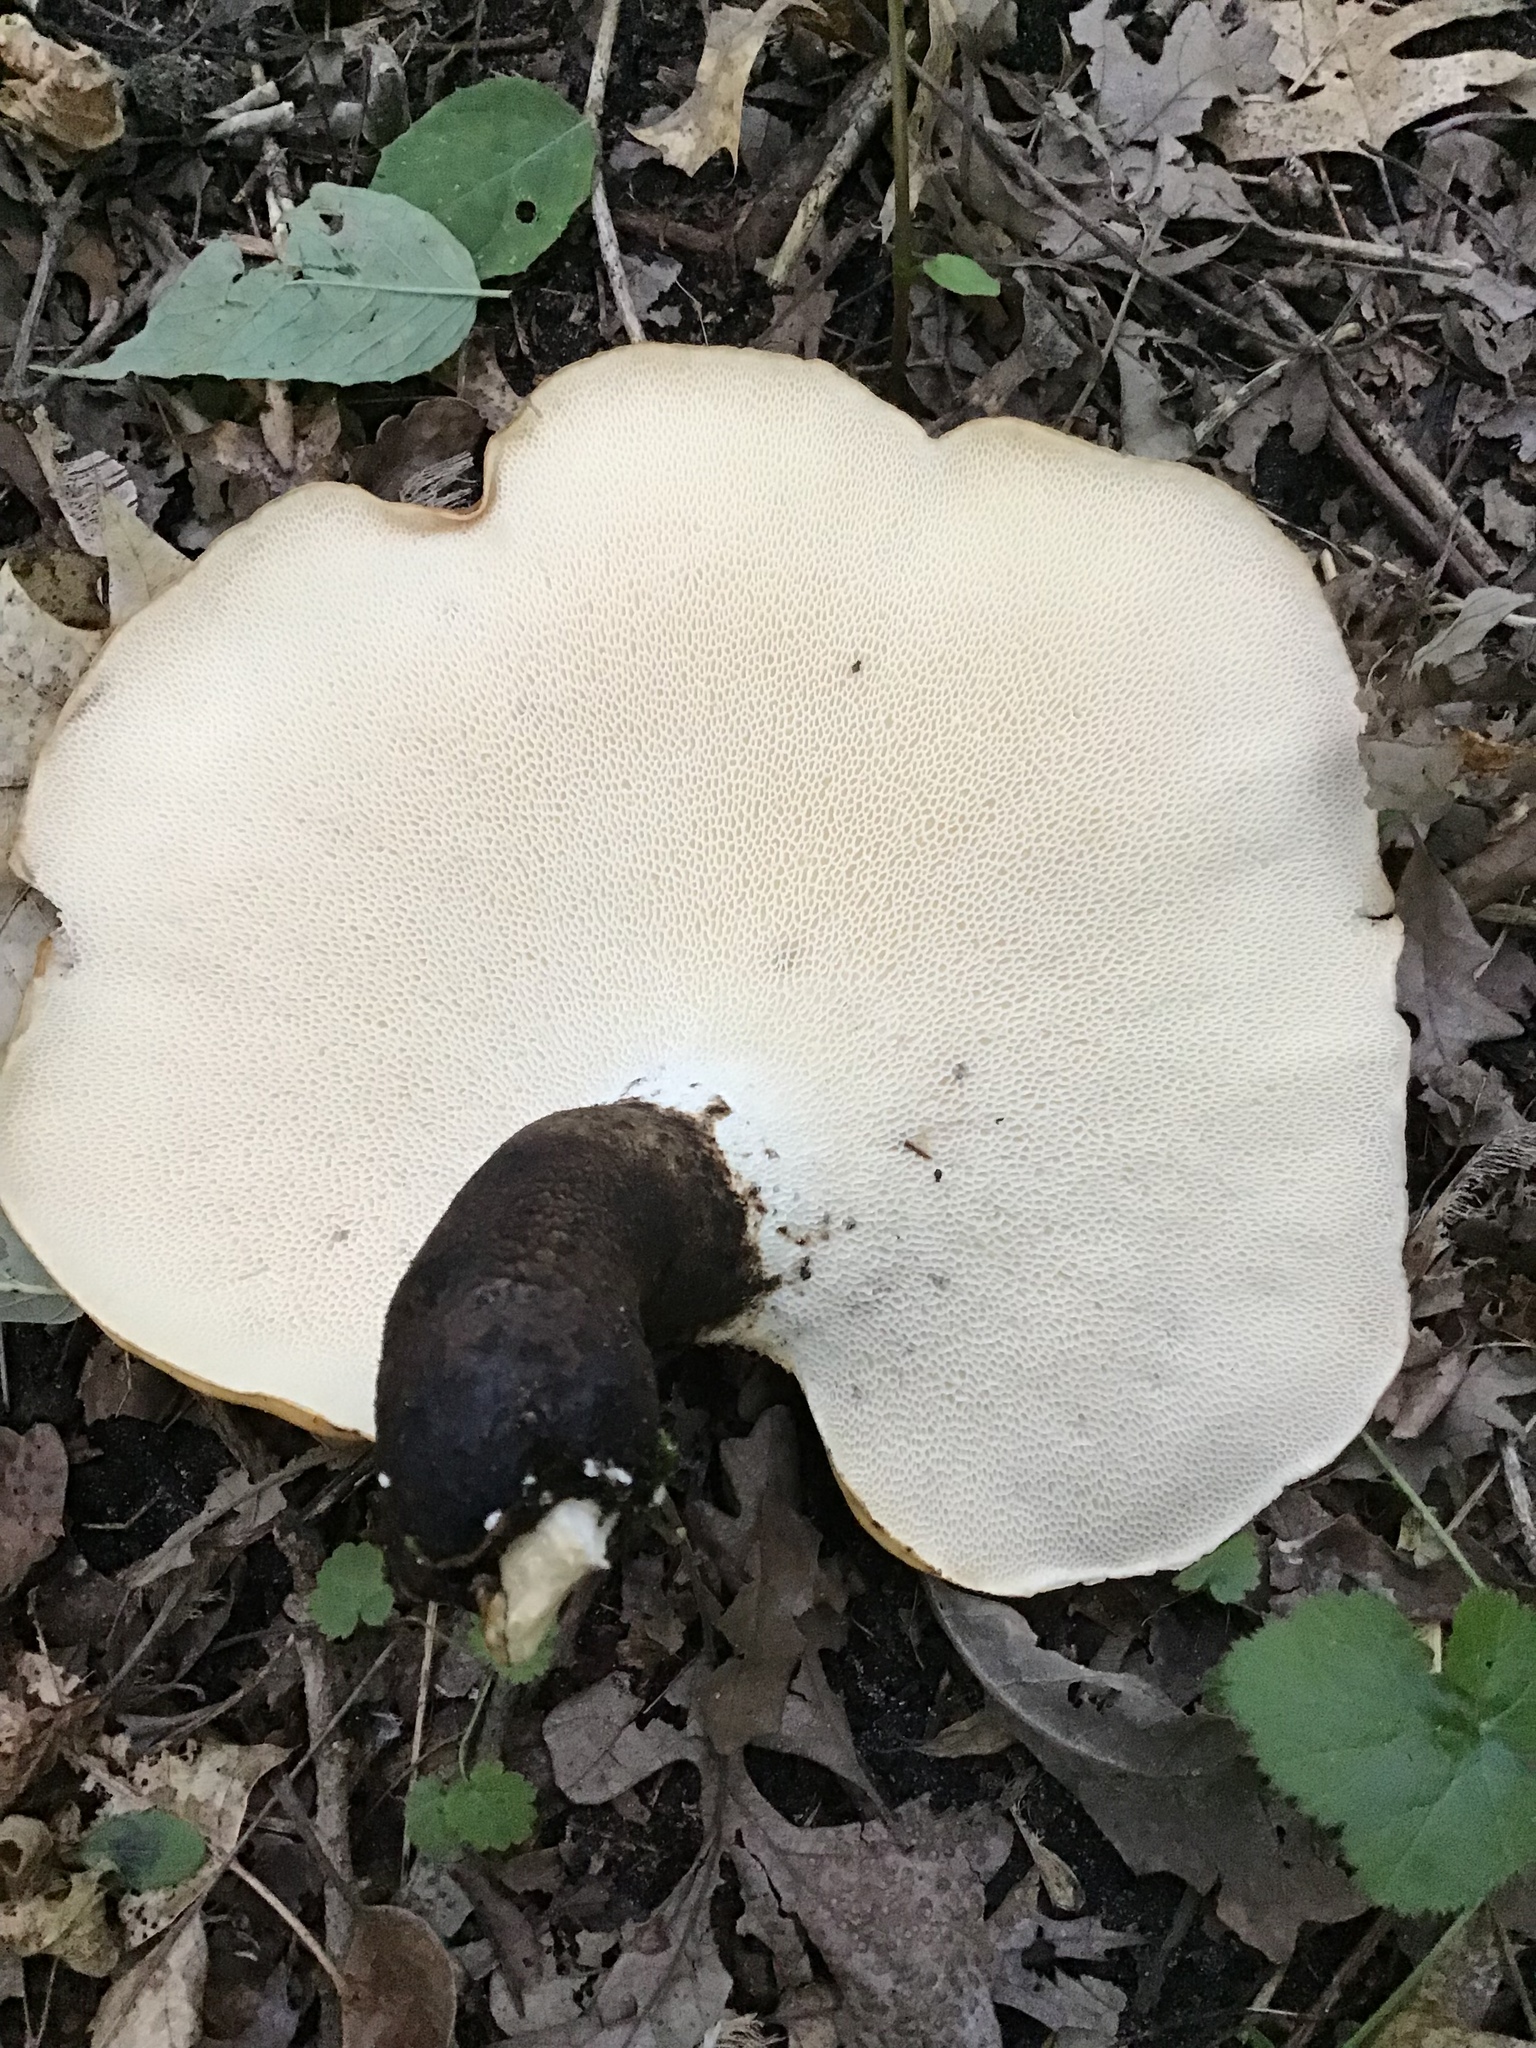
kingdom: Fungi
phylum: Basidiomycota
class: Agaricomycetes
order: Polyporales
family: Polyporaceae
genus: Cerioporus
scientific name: Cerioporus squamosus
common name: Dryad's saddle
